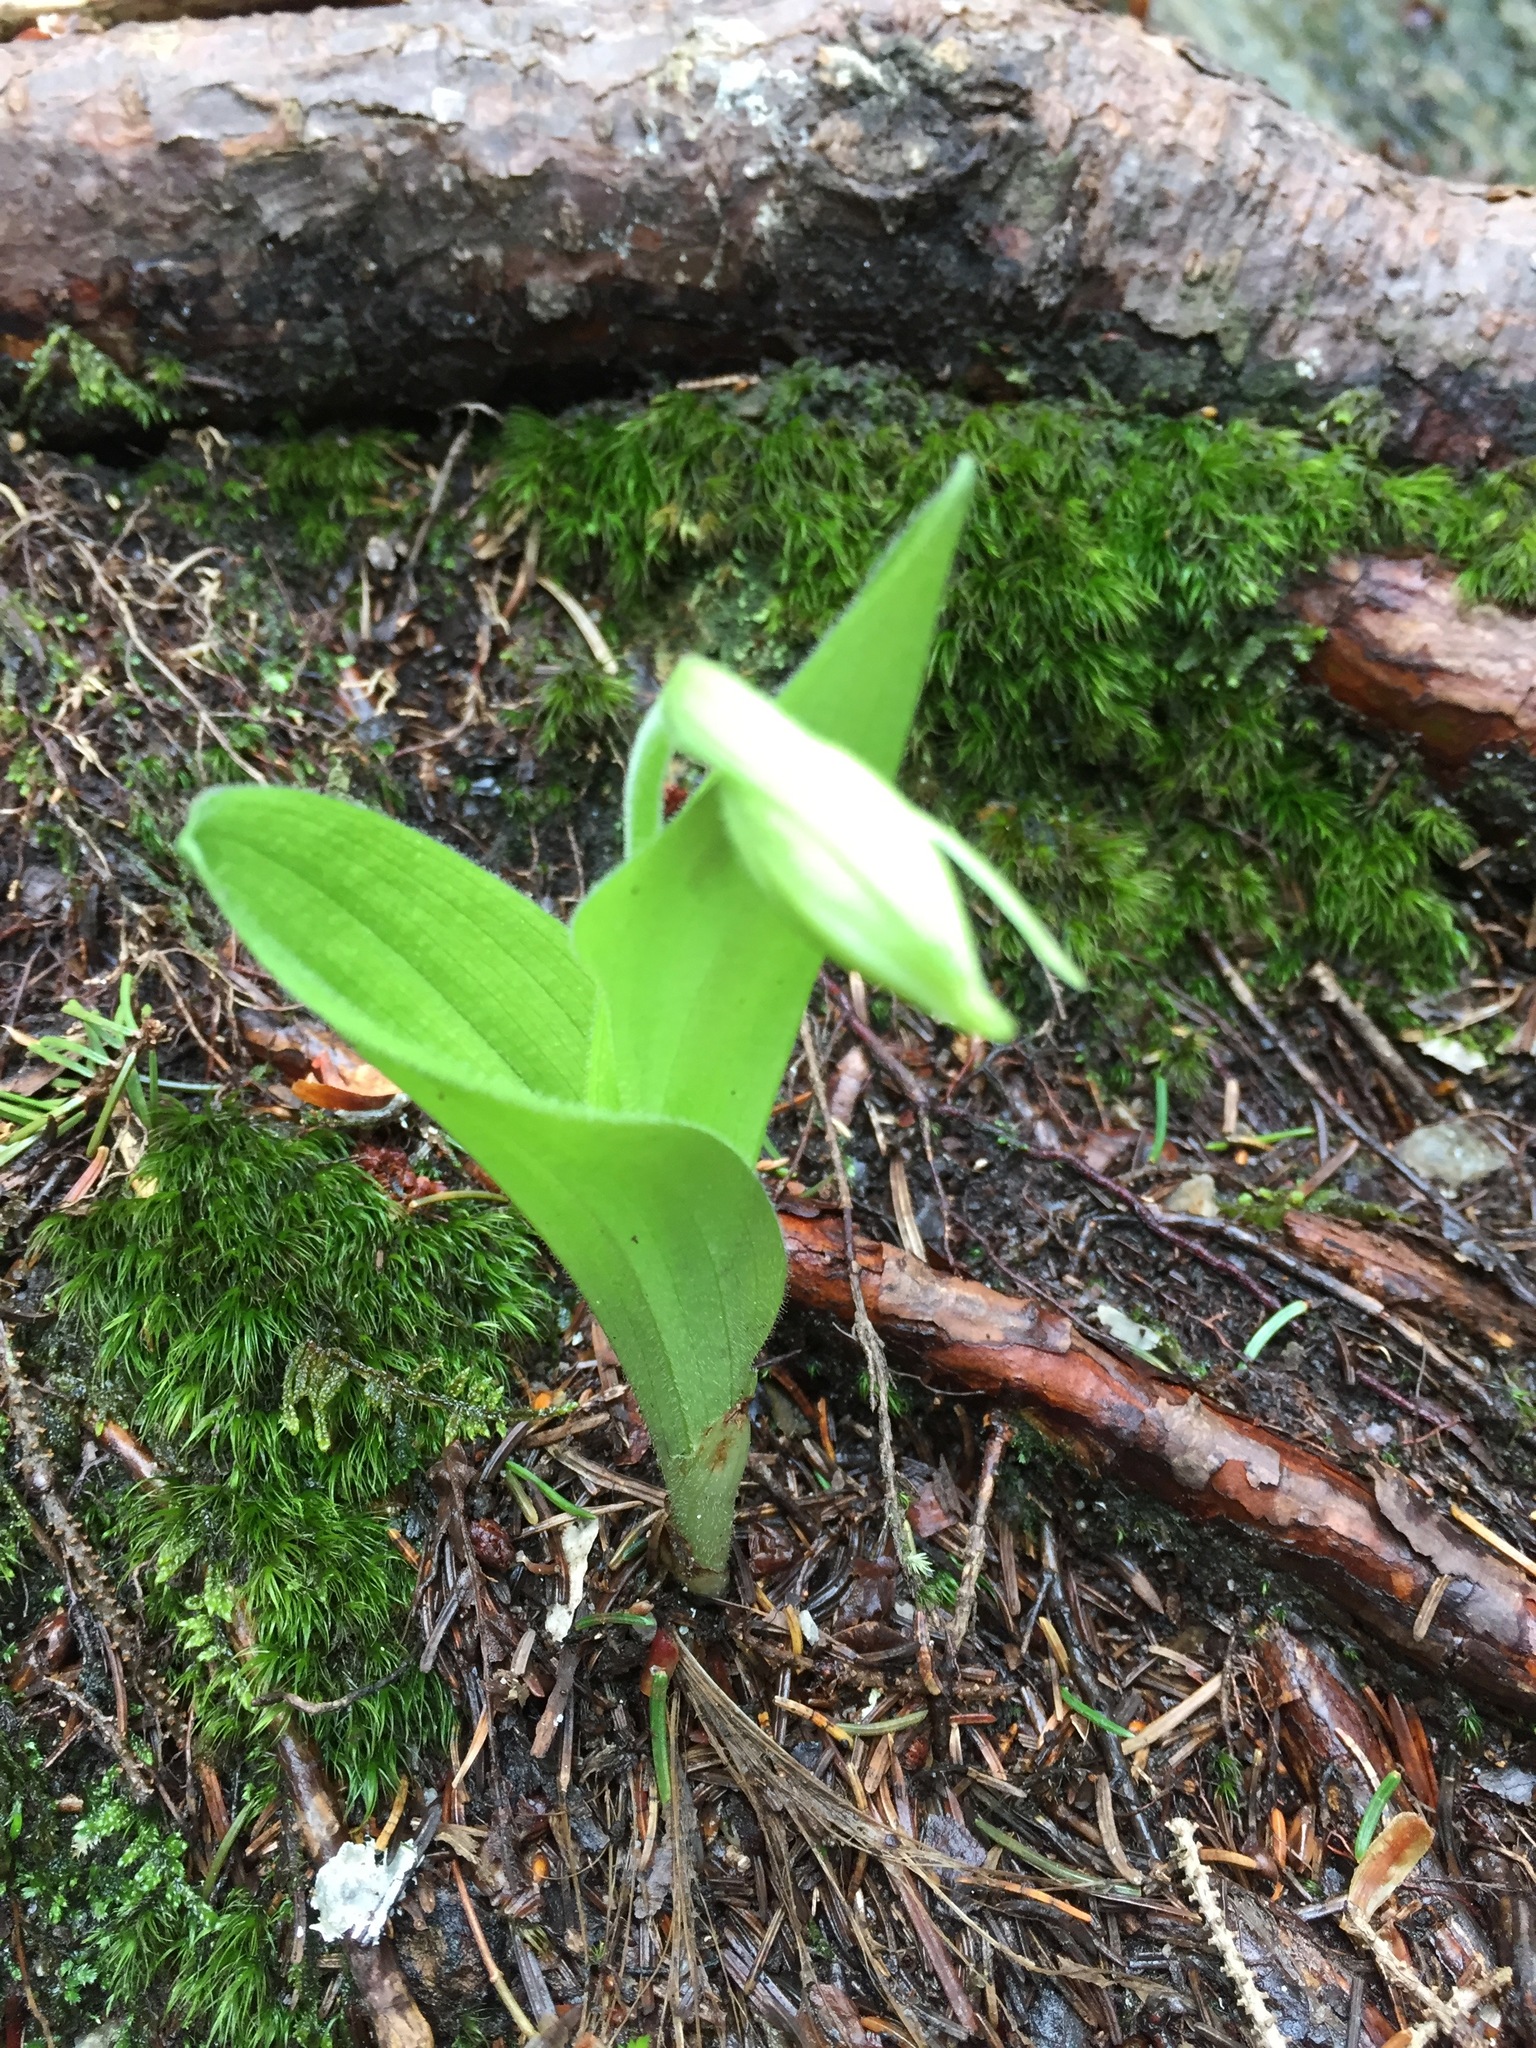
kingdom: Plantae
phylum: Tracheophyta
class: Liliopsida
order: Asparagales
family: Orchidaceae
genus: Cypripedium
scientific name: Cypripedium acaule
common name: Pink lady's-slipper
